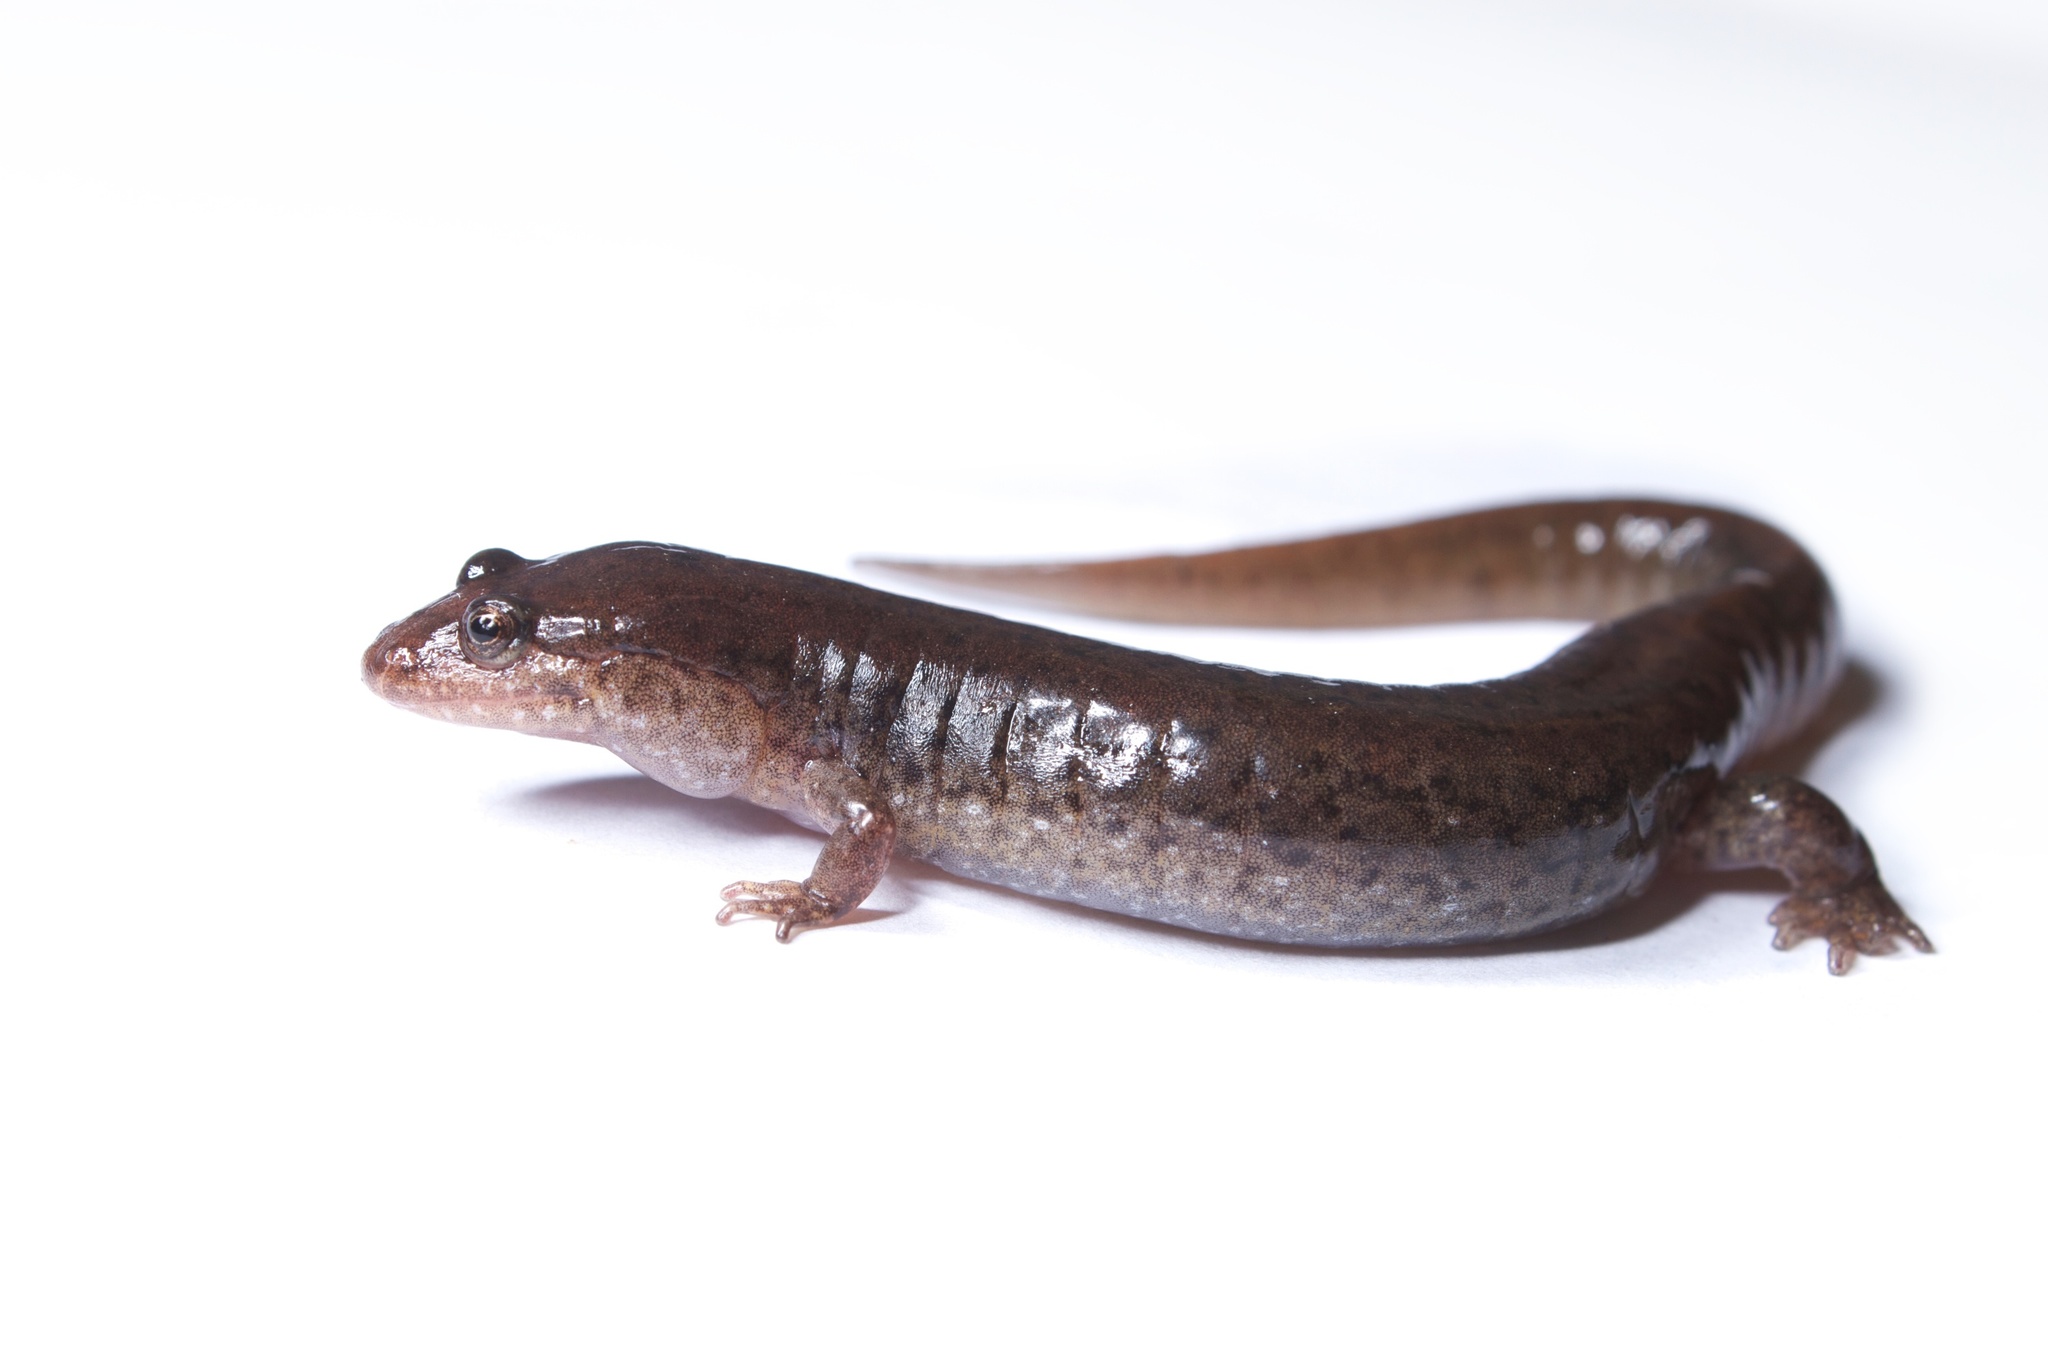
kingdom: Animalia
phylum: Chordata
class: Amphibia
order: Caudata
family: Plethodontidae
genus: Desmognathus
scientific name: Desmognathus fuscus
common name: Northern dusky salamander
